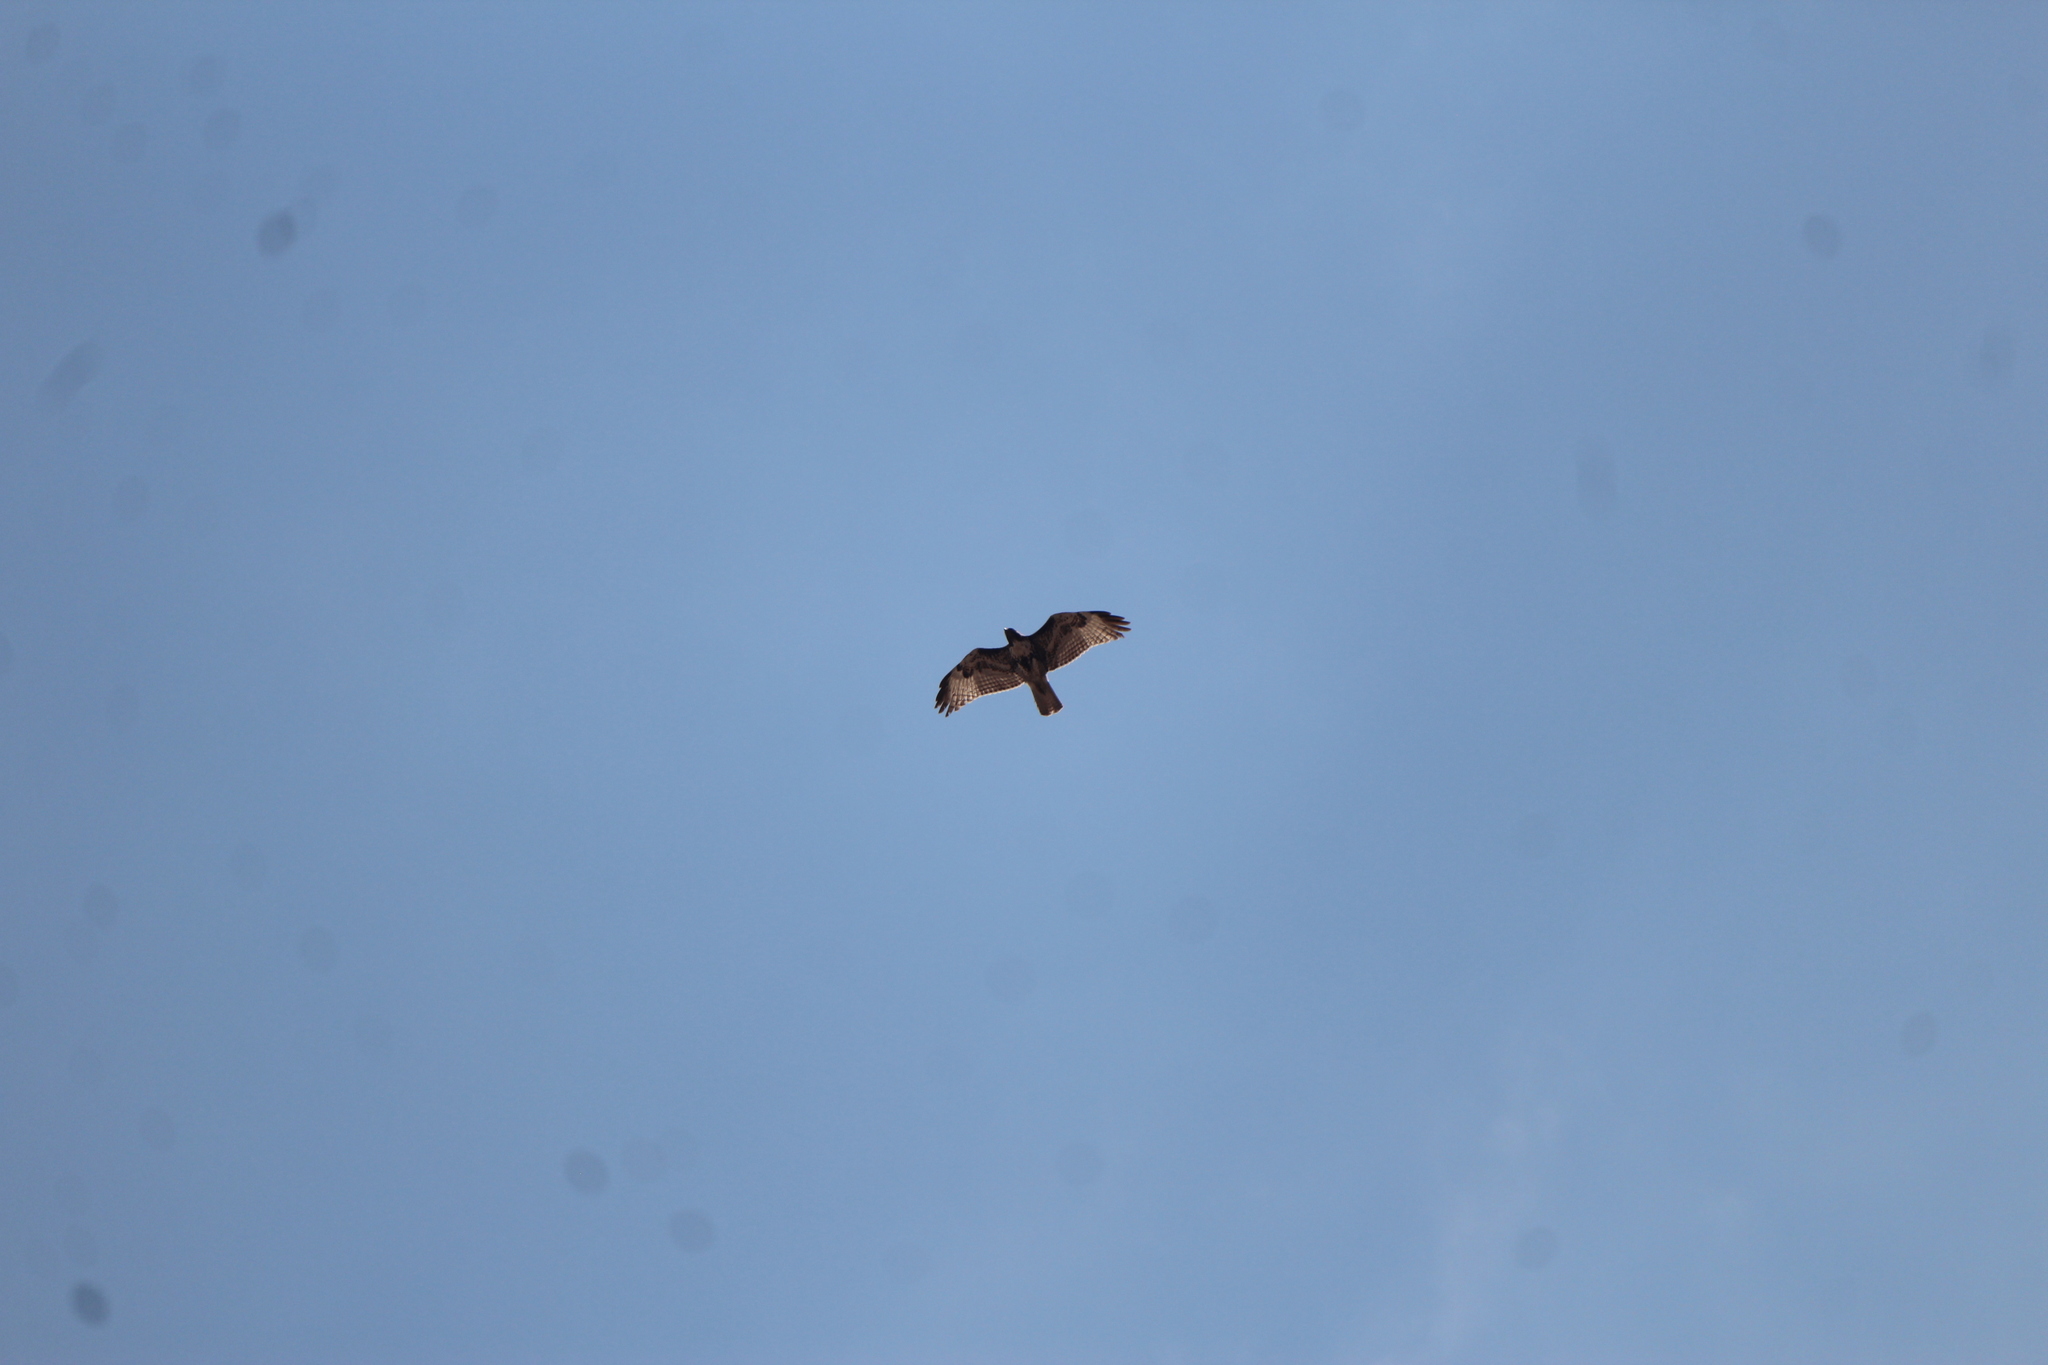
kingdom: Animalia
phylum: Chordata
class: Aves
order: Accipitriformes
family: Accipitridae
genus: Buteo
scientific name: Buteo jamaicensis
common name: Red-tailed hawk
